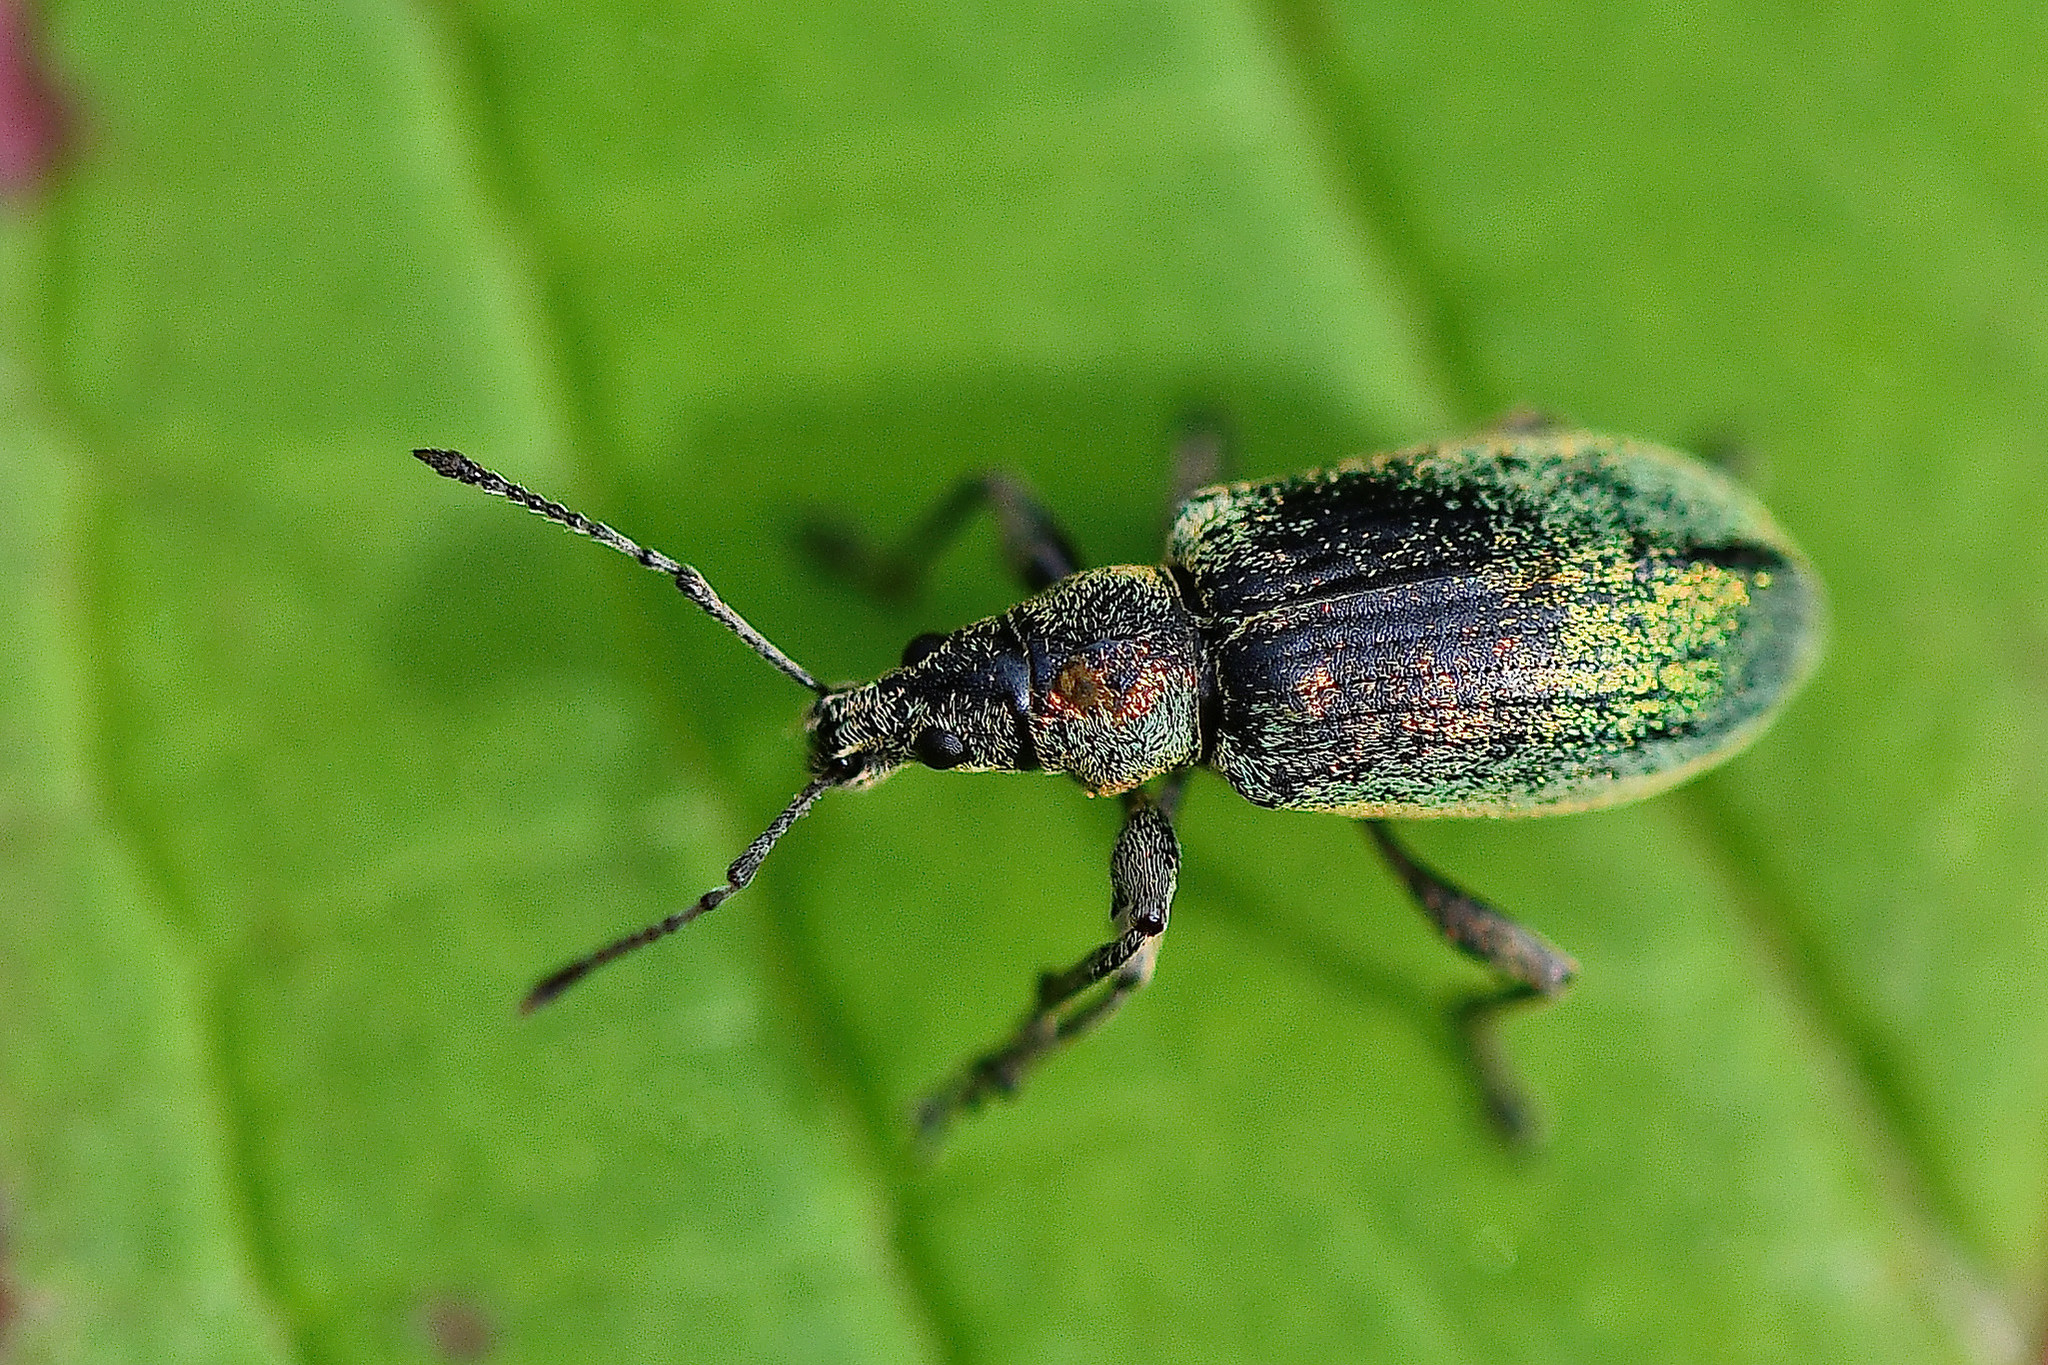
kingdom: Animalia
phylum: Arthropoda
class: Insecta
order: Coleoptera
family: Curculionidae
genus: Phyllobius
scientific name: Phyllobius pomaceus
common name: Green nettle weevil
